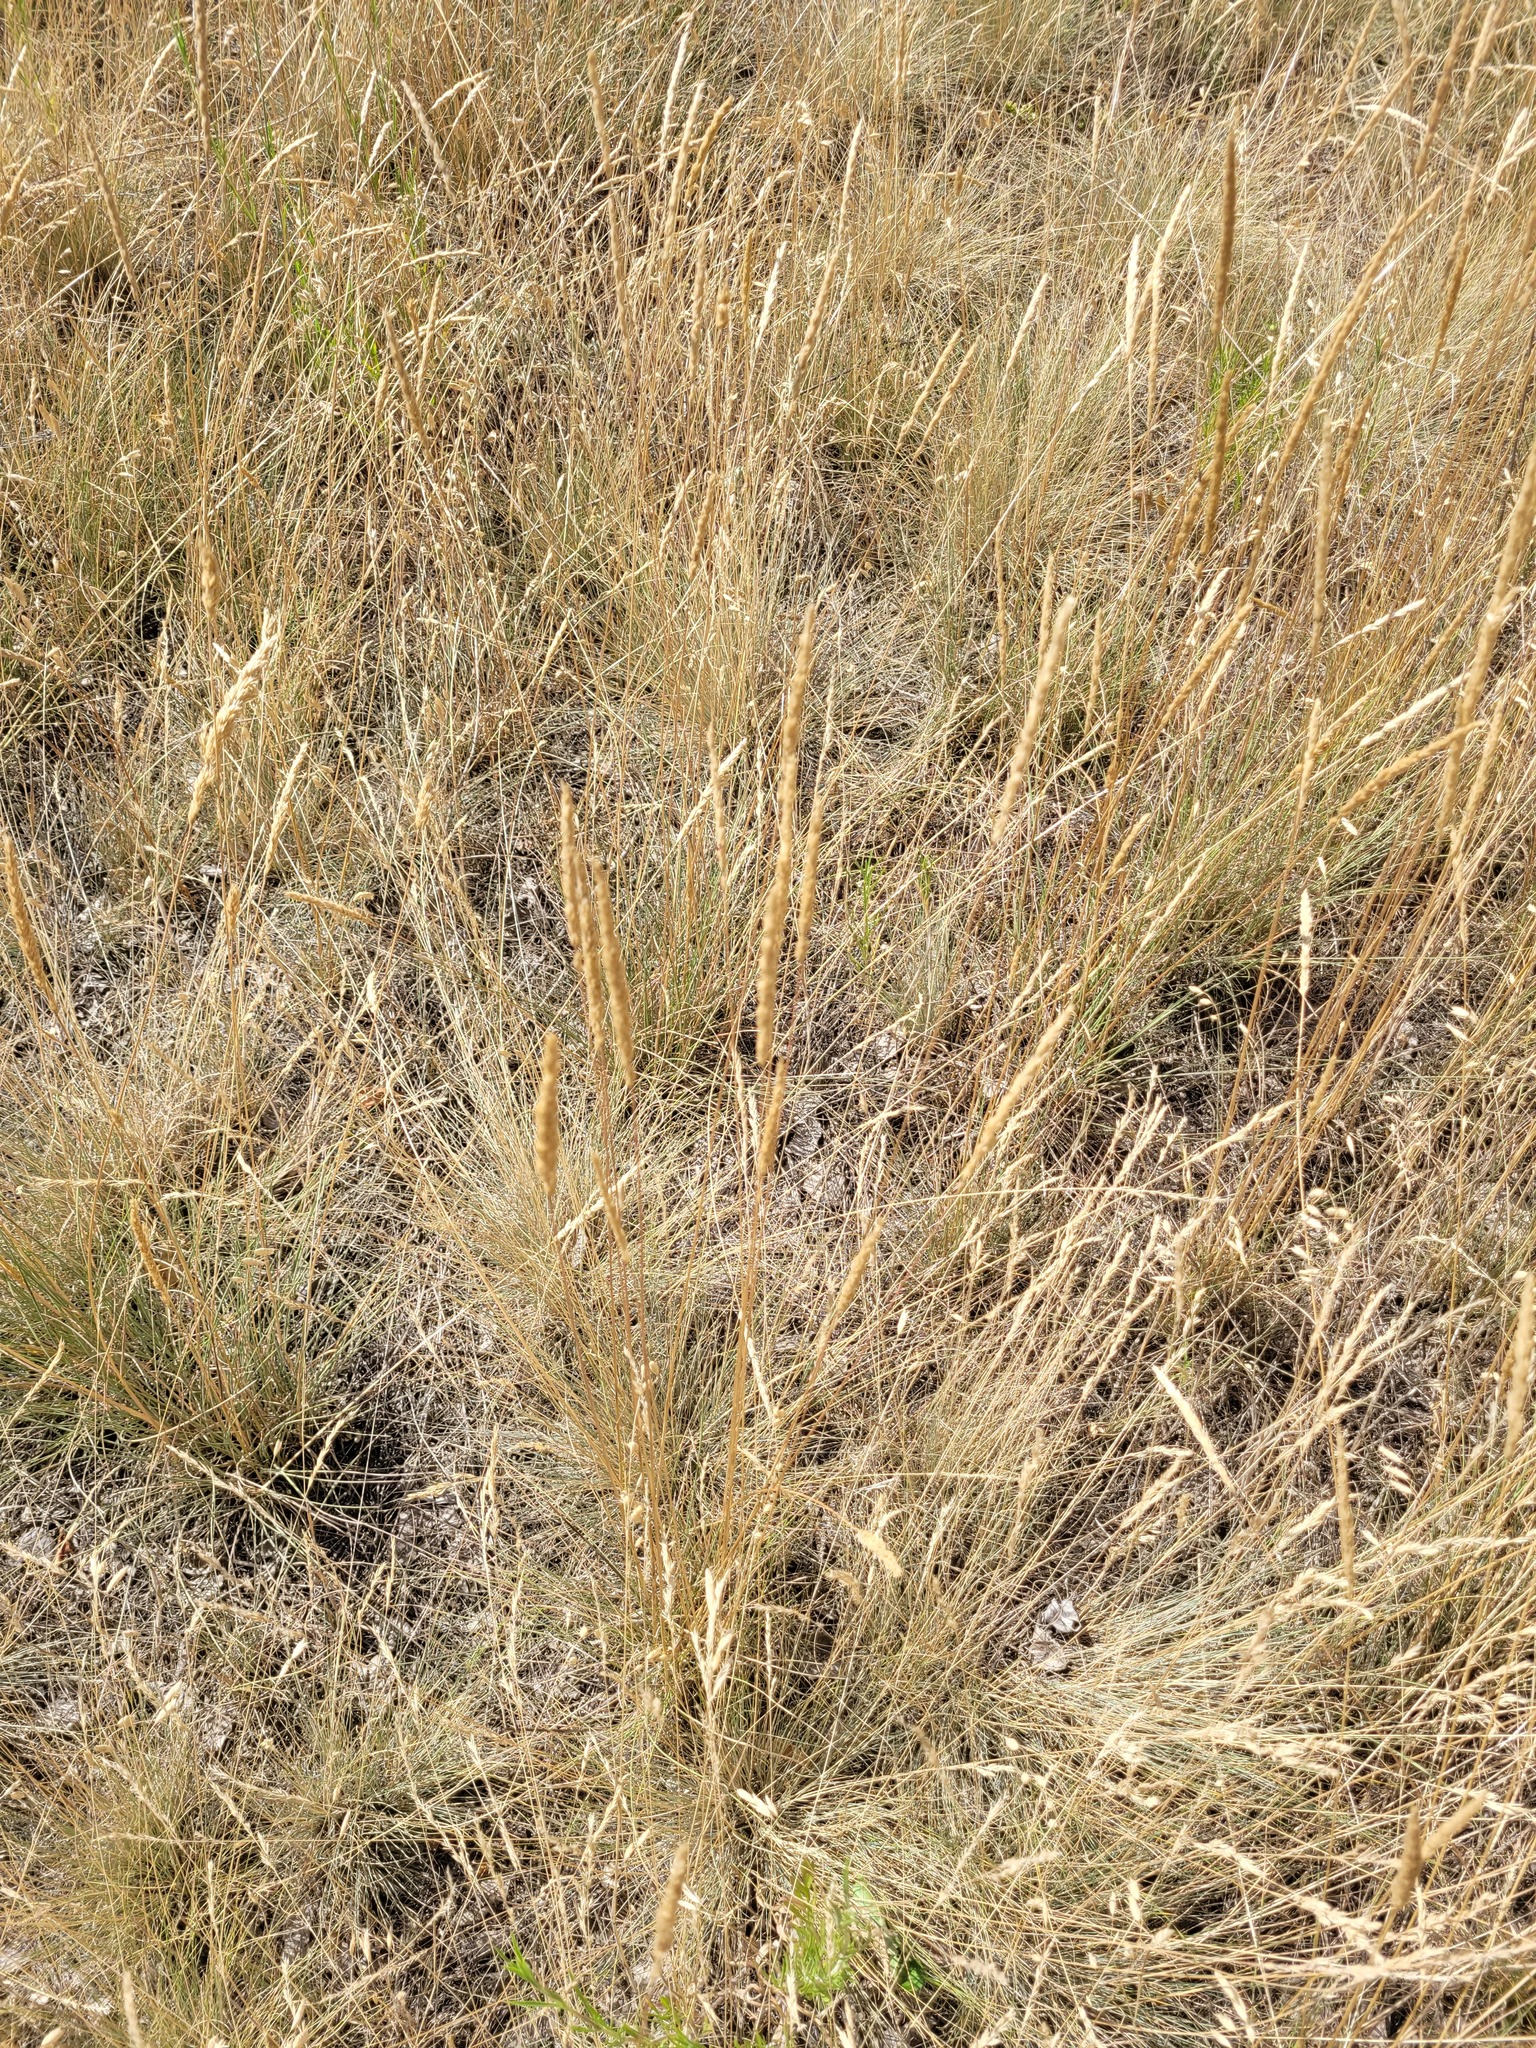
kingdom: Plantae
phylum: Tracheophyta
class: Liliopsida
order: Poales
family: Poaceae
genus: Koeleria
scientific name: Koeleria macrantha
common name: Crested hair-grass
